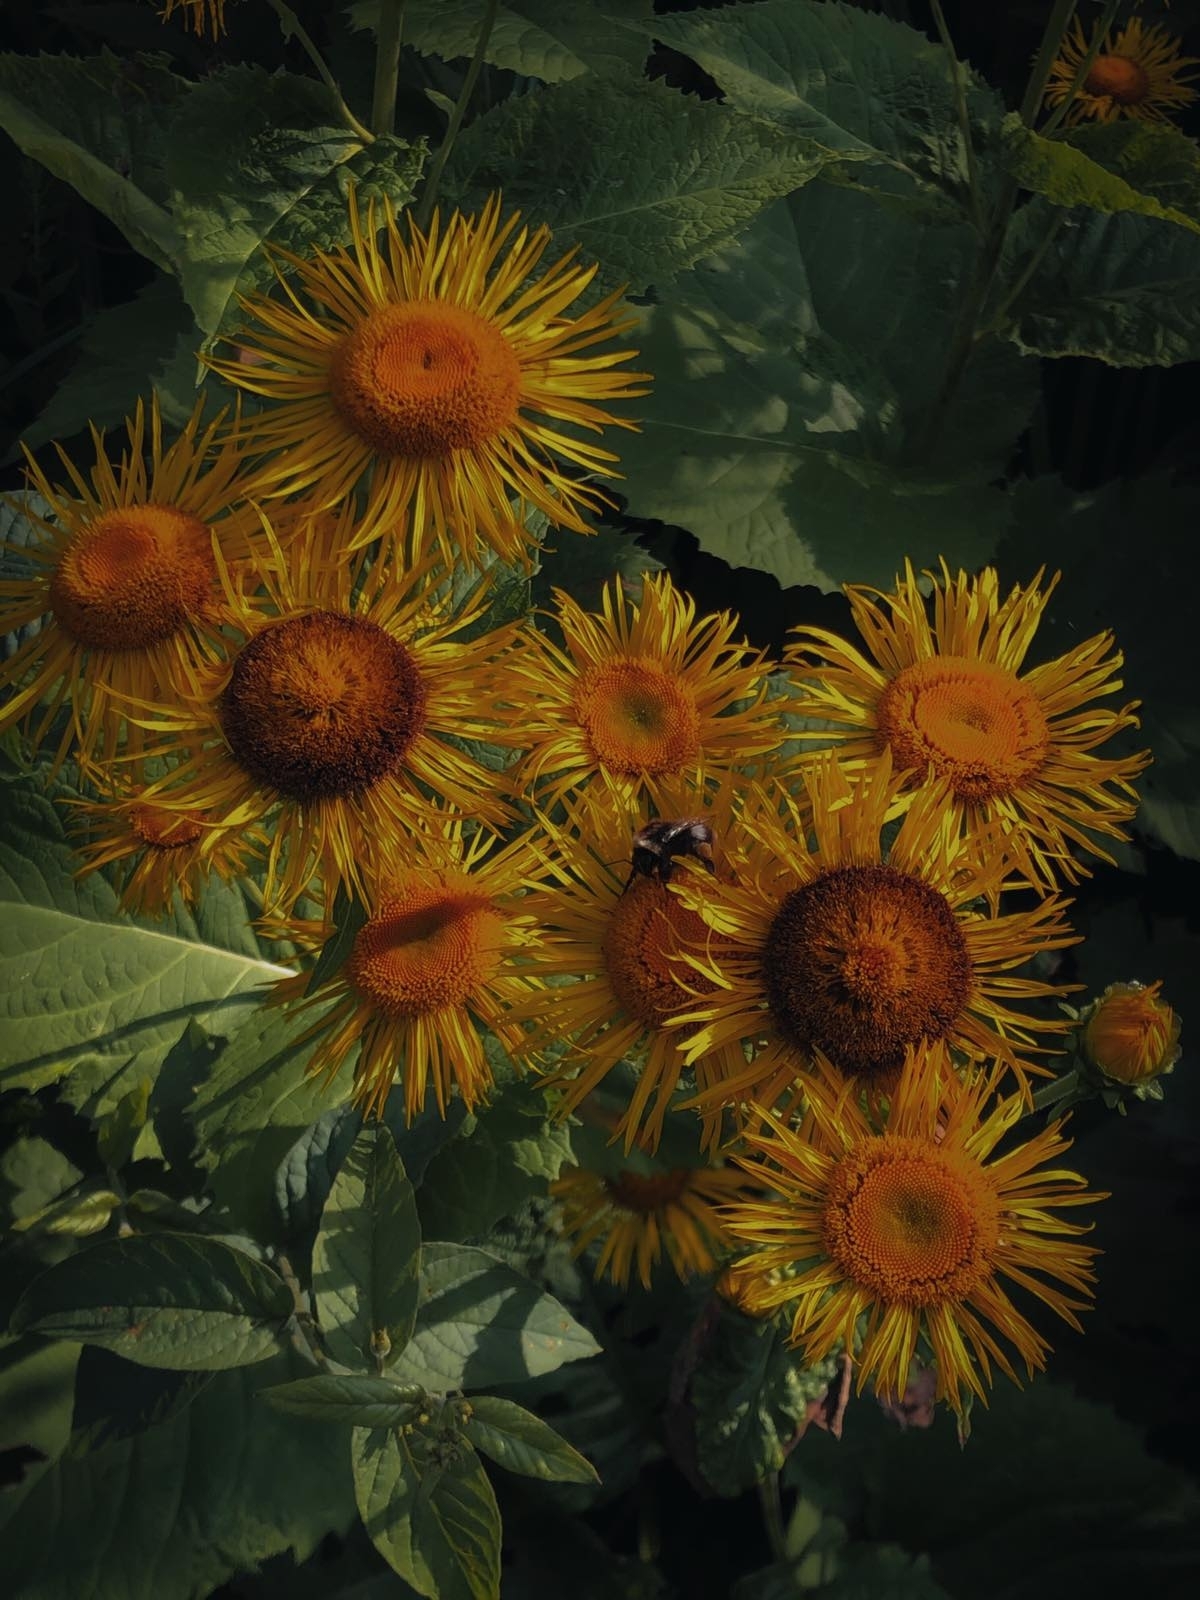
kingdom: Plantae
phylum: Tracheophyta
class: Magnoliopsida
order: Asterales
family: Asteraceae
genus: Telekia
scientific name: Telekia speciosa
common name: Yellow oxeye
